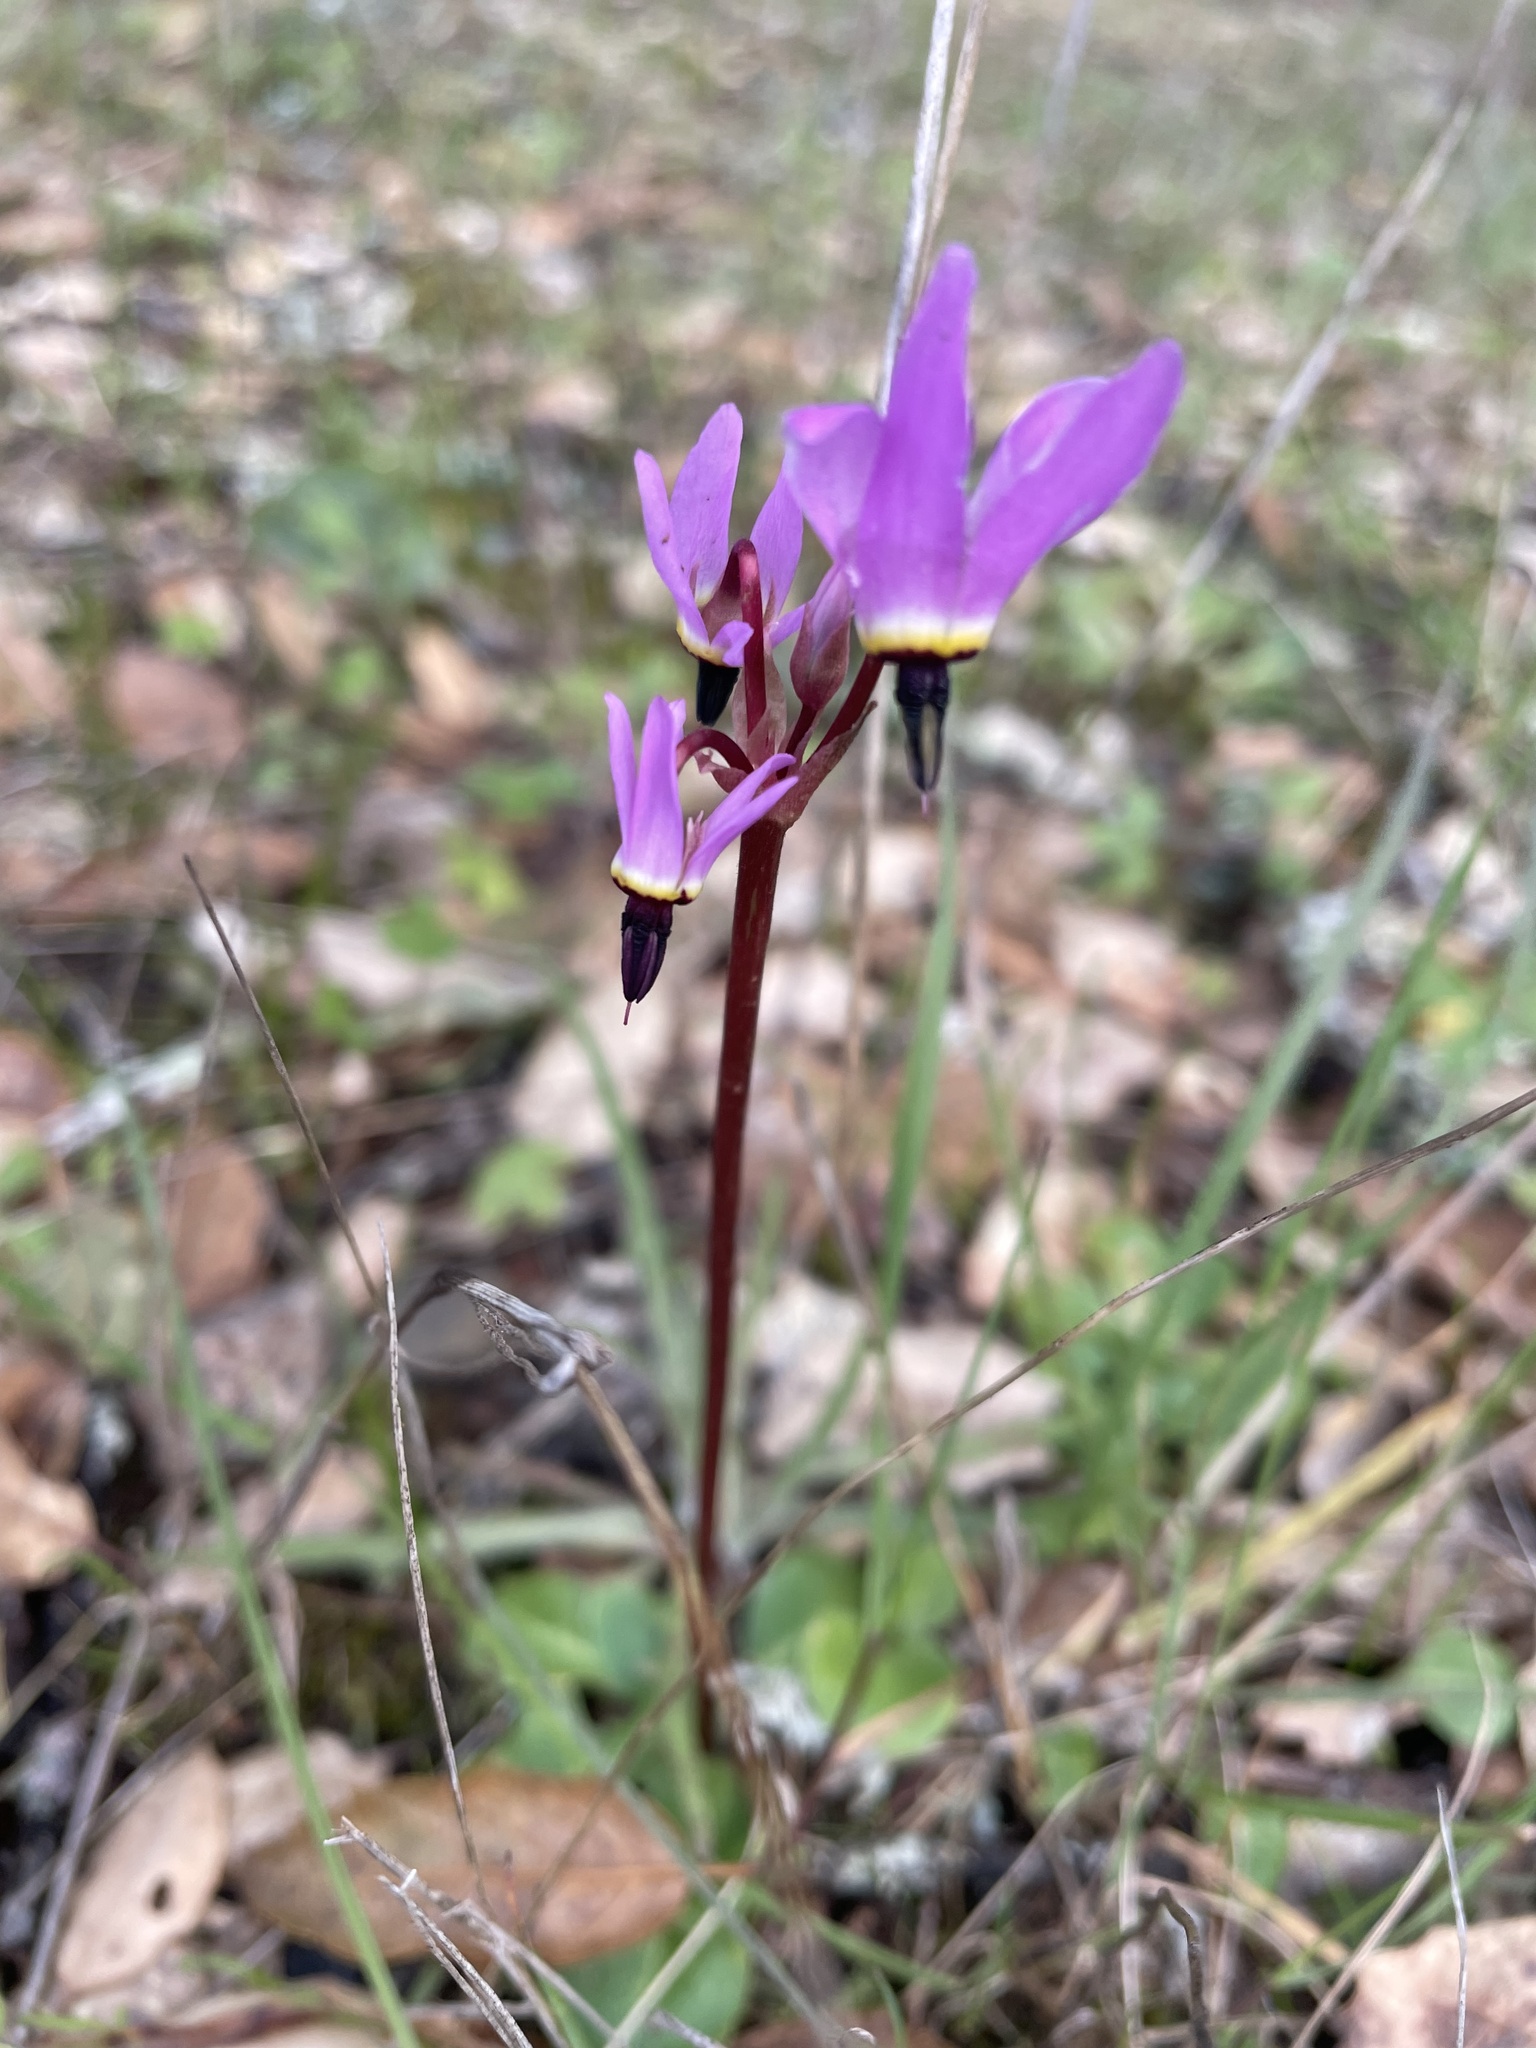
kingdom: Plantae
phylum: Tracheophyta
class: Magnoliopsida
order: Ericales
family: Primulaceae
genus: Dodecatheon
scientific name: Dodecatheon hendersonii
